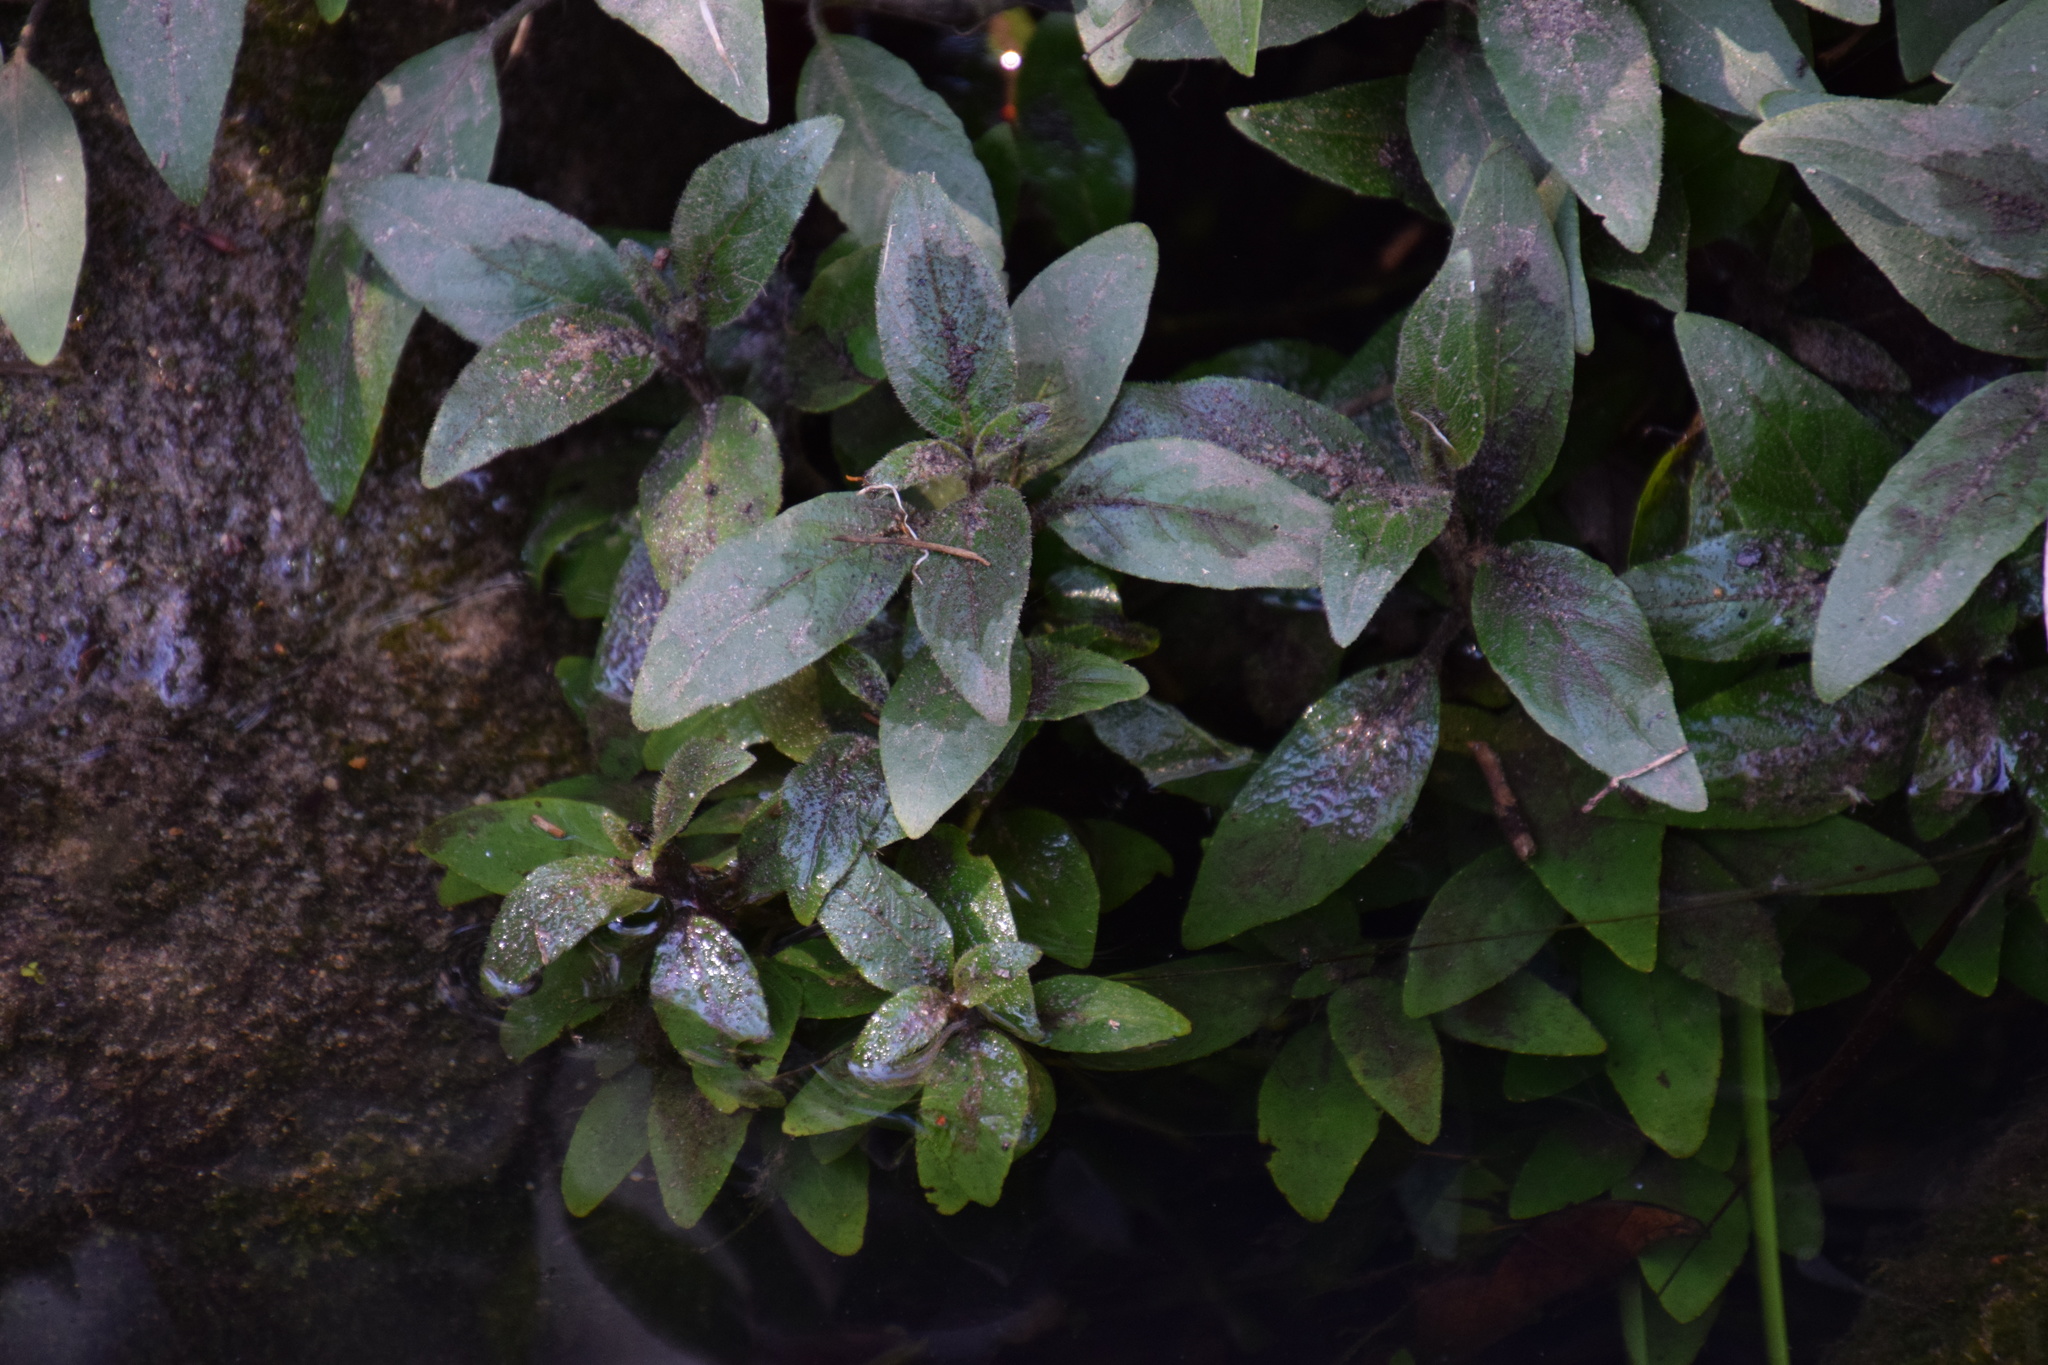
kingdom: Plantae
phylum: Tracheophyta
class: Magnoliopsida
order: Lamiales
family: Acanthaceae
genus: Ruellia
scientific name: Ruellia squarrosa
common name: Water bluebell
